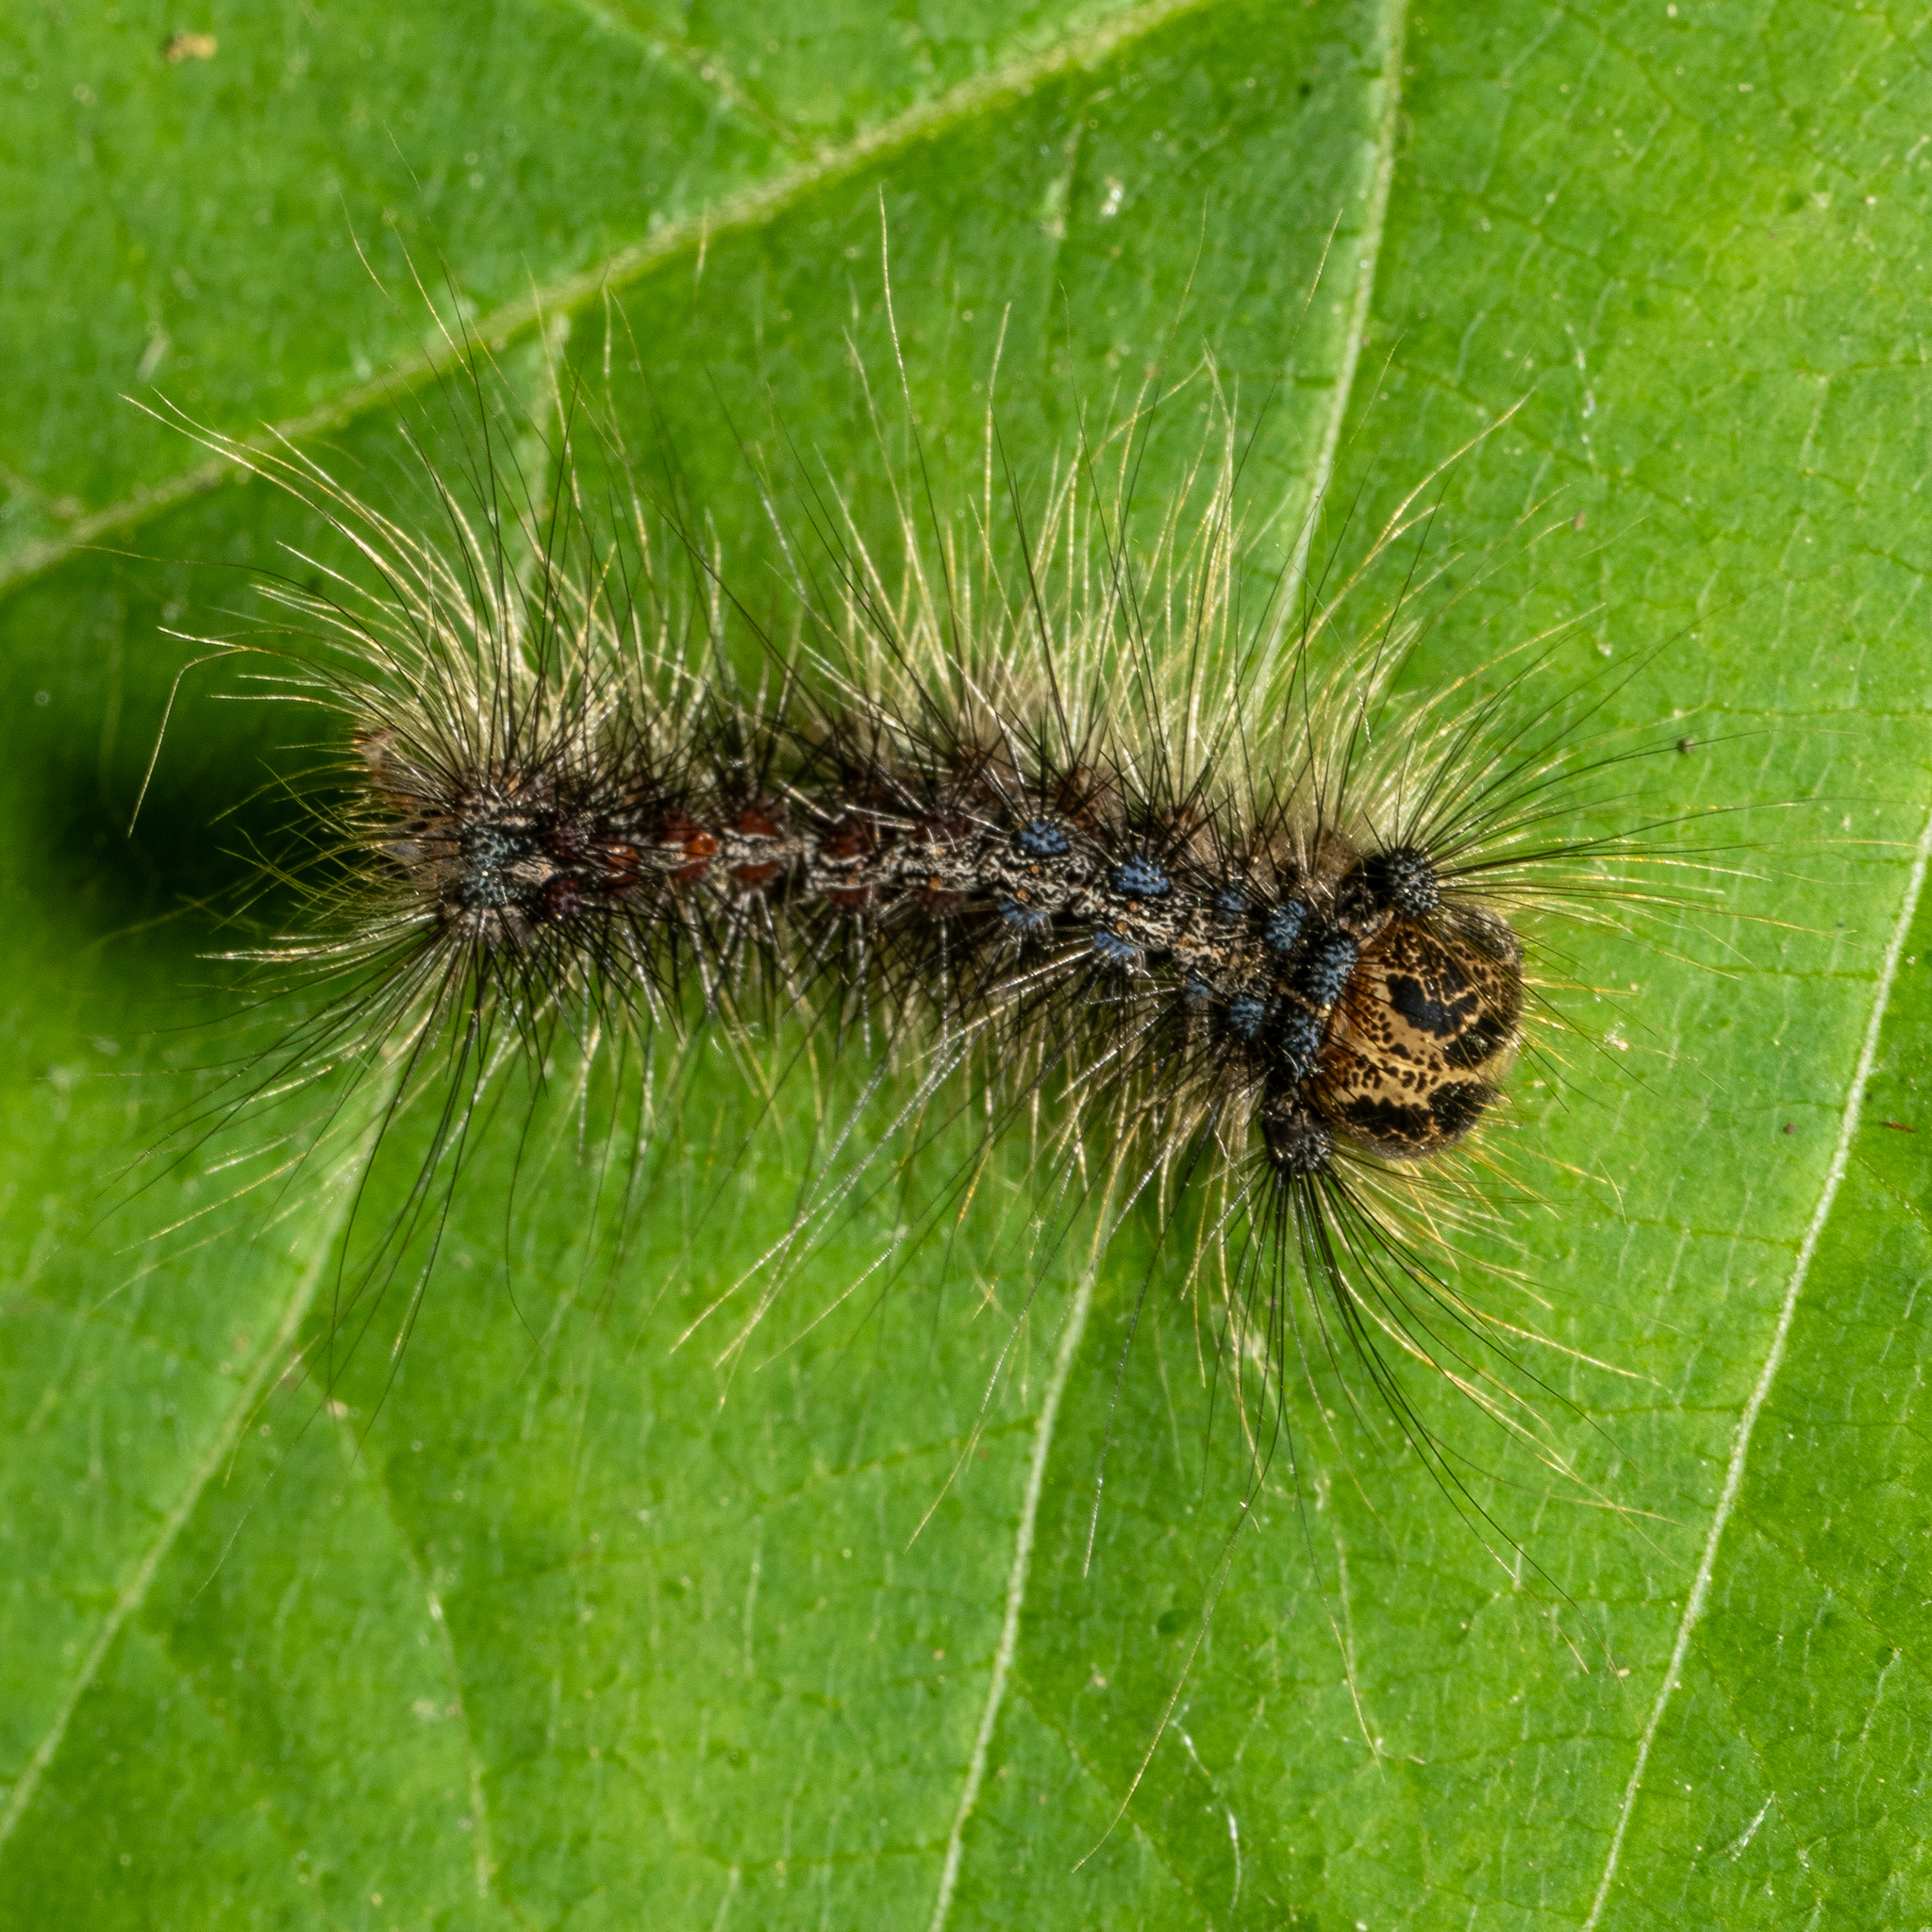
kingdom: Animalia
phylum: Arthropoda
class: Insecta
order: Lepidoptera
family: Erebidae
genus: Lymantria
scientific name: Lymantria dispar
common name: Gypsy moth
